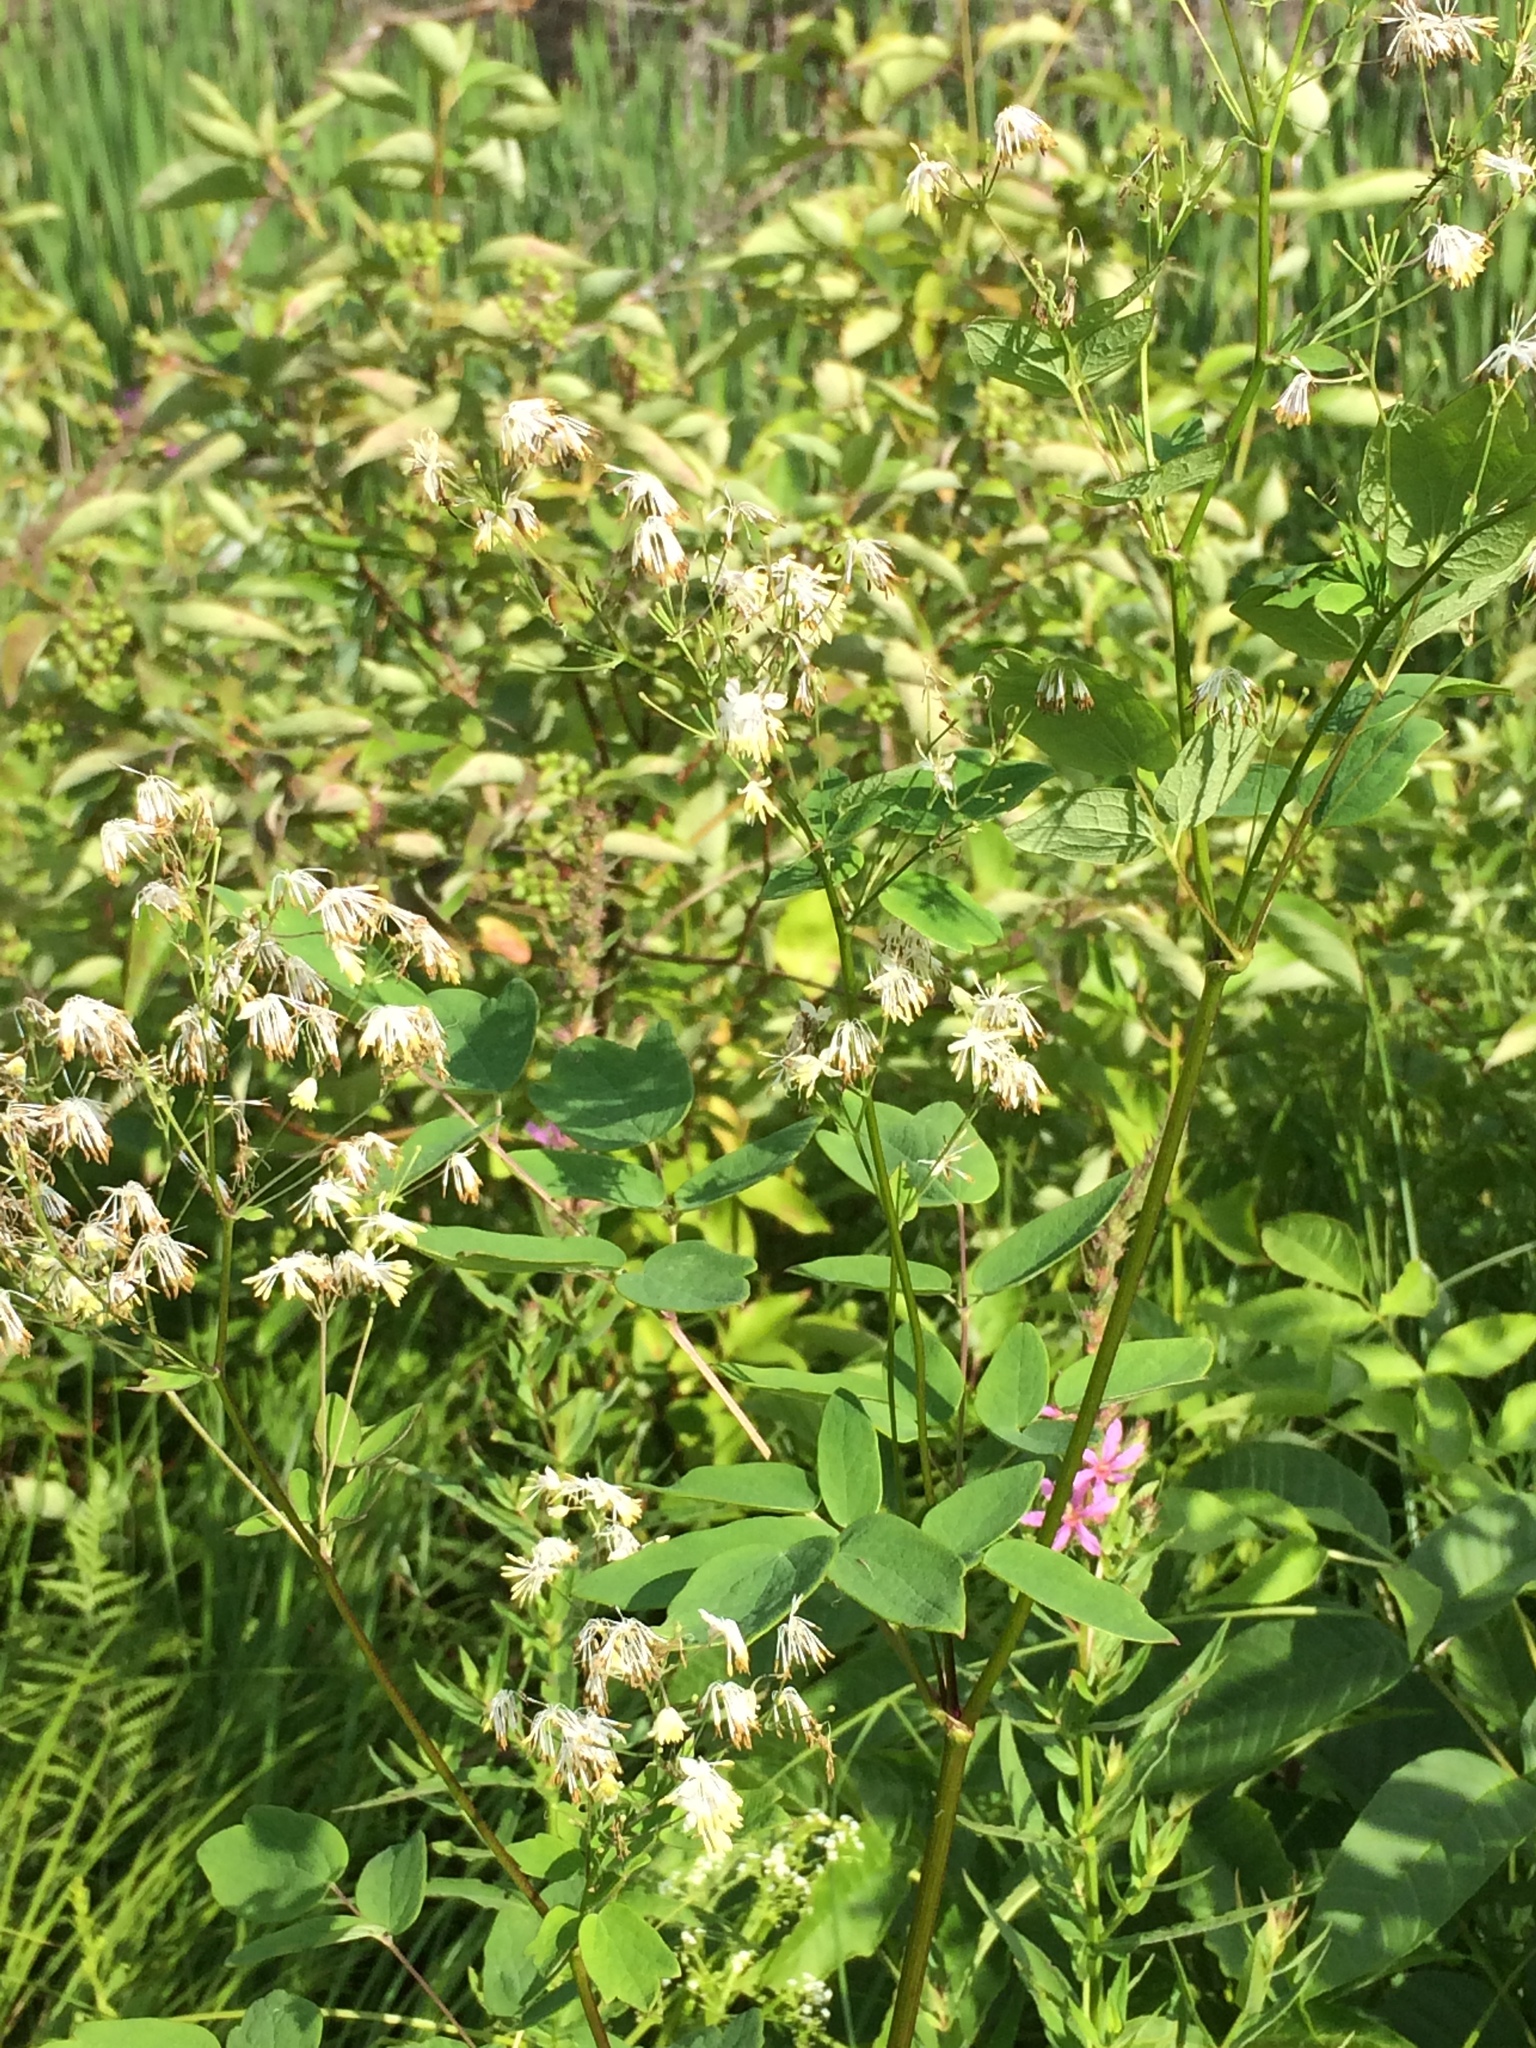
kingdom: Plantae
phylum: Tracheophyta
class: Magnoliopsida
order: Ranunculales
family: Ranunculaceae
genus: Thalictrum
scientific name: Thalictrum dasycarpum
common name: Purple meadow-rue
